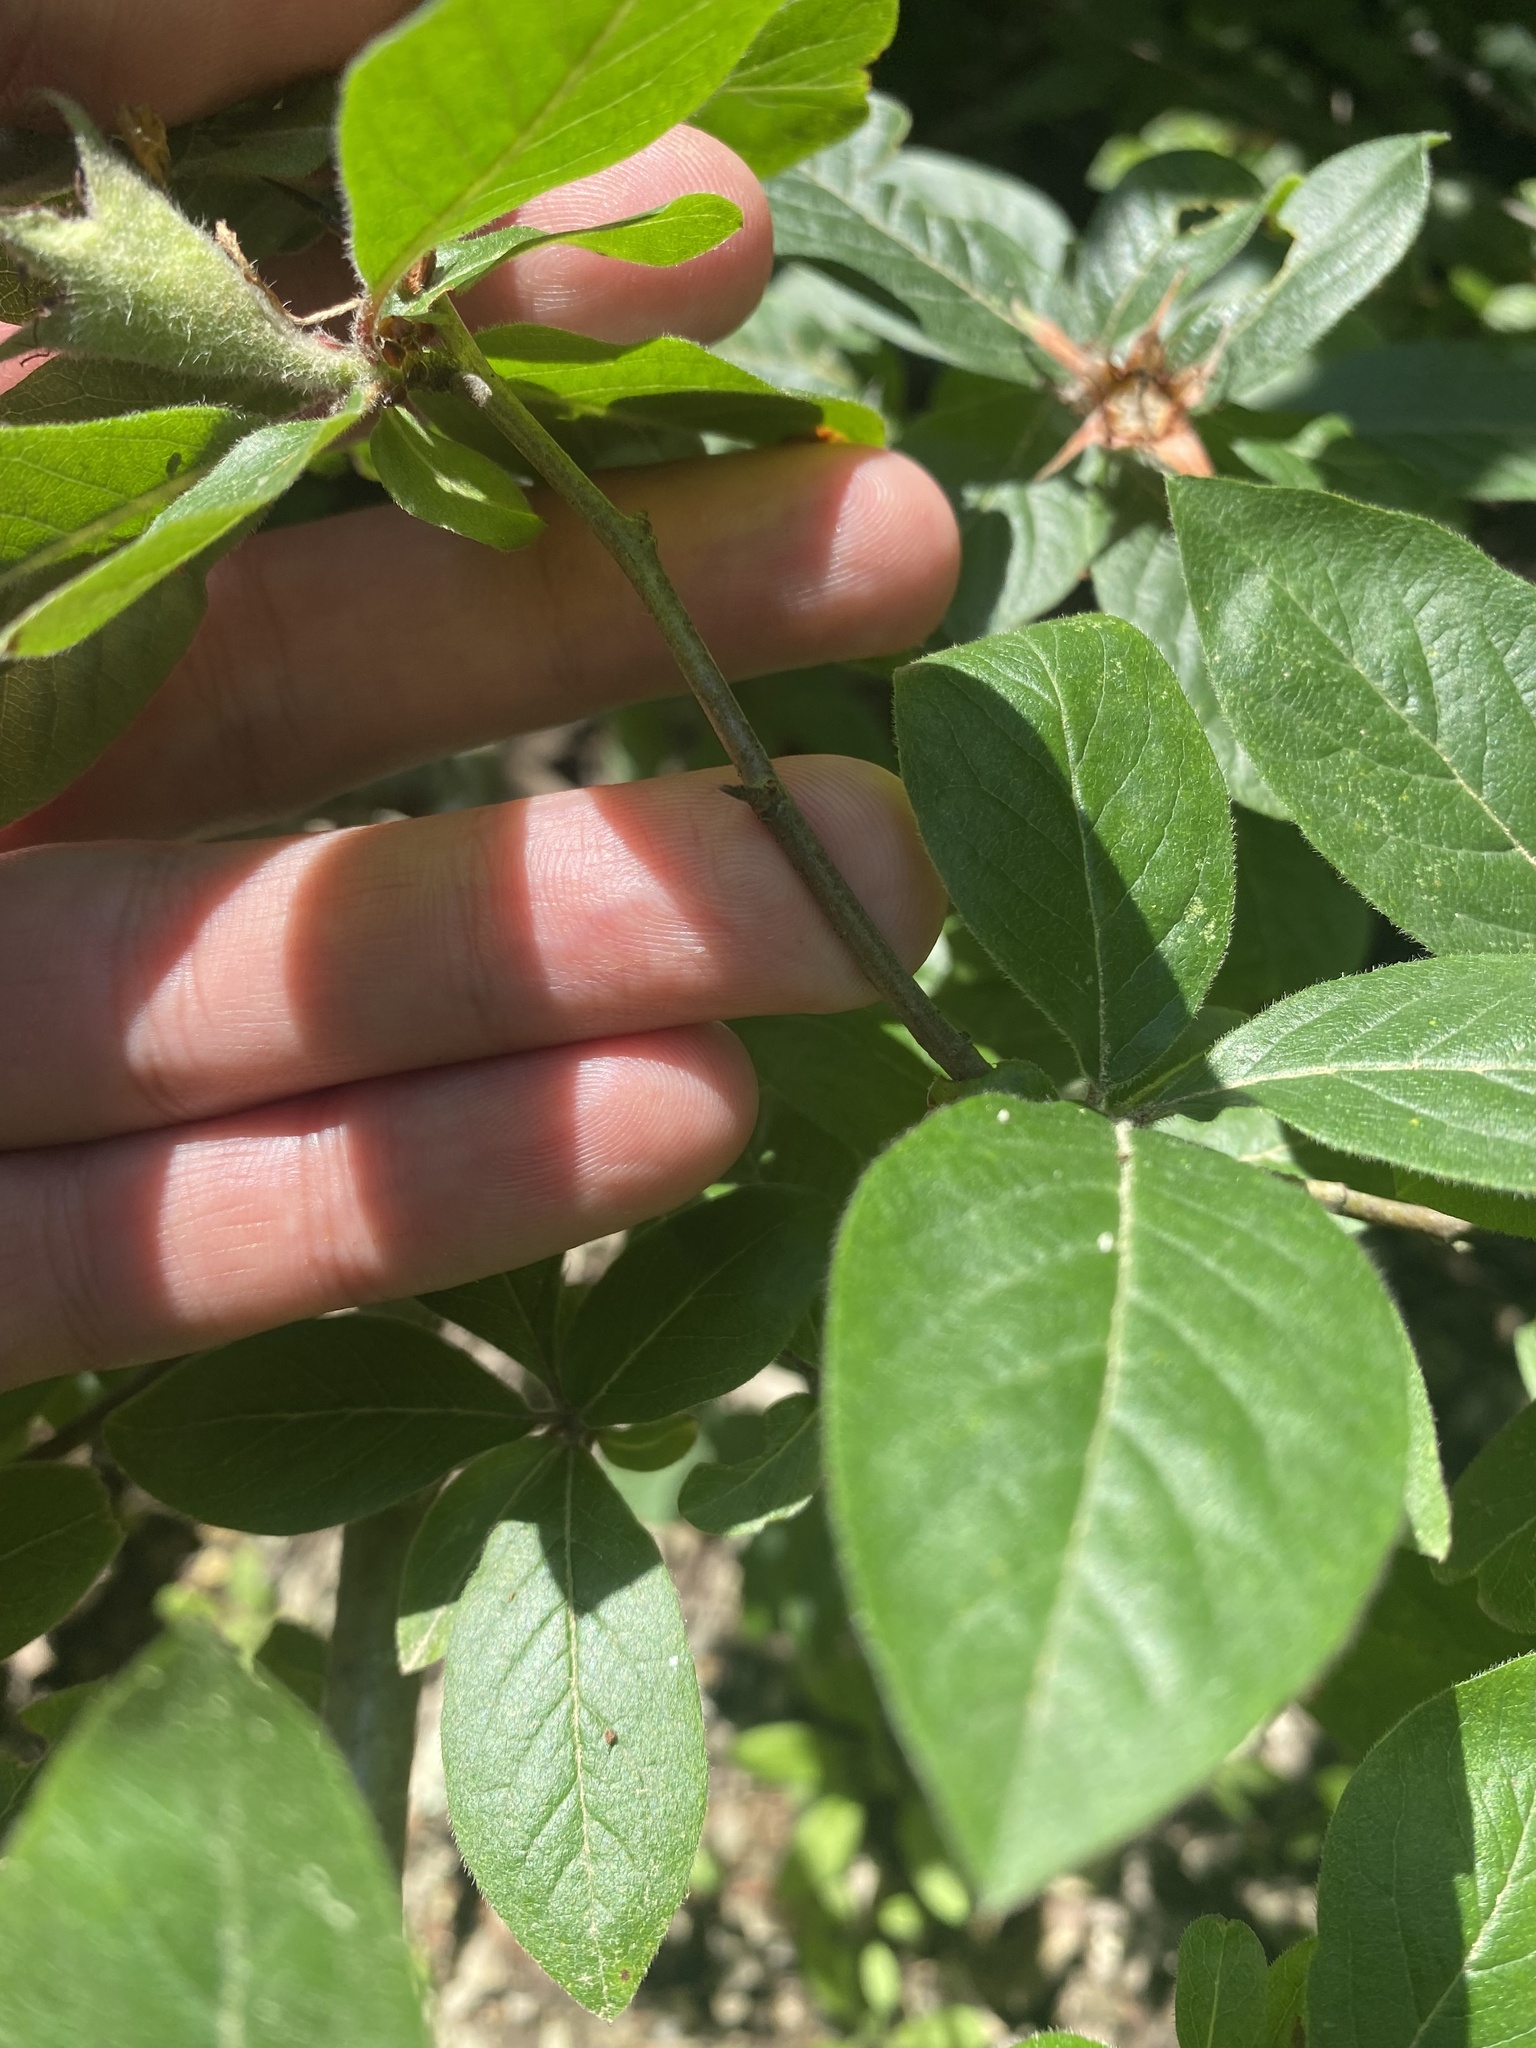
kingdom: Plantae
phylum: Tracheophyta
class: Magnoliopsida
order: Rosales
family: Rosaceae
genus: Mespilus
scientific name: Mespilus germanica
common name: Medlar
